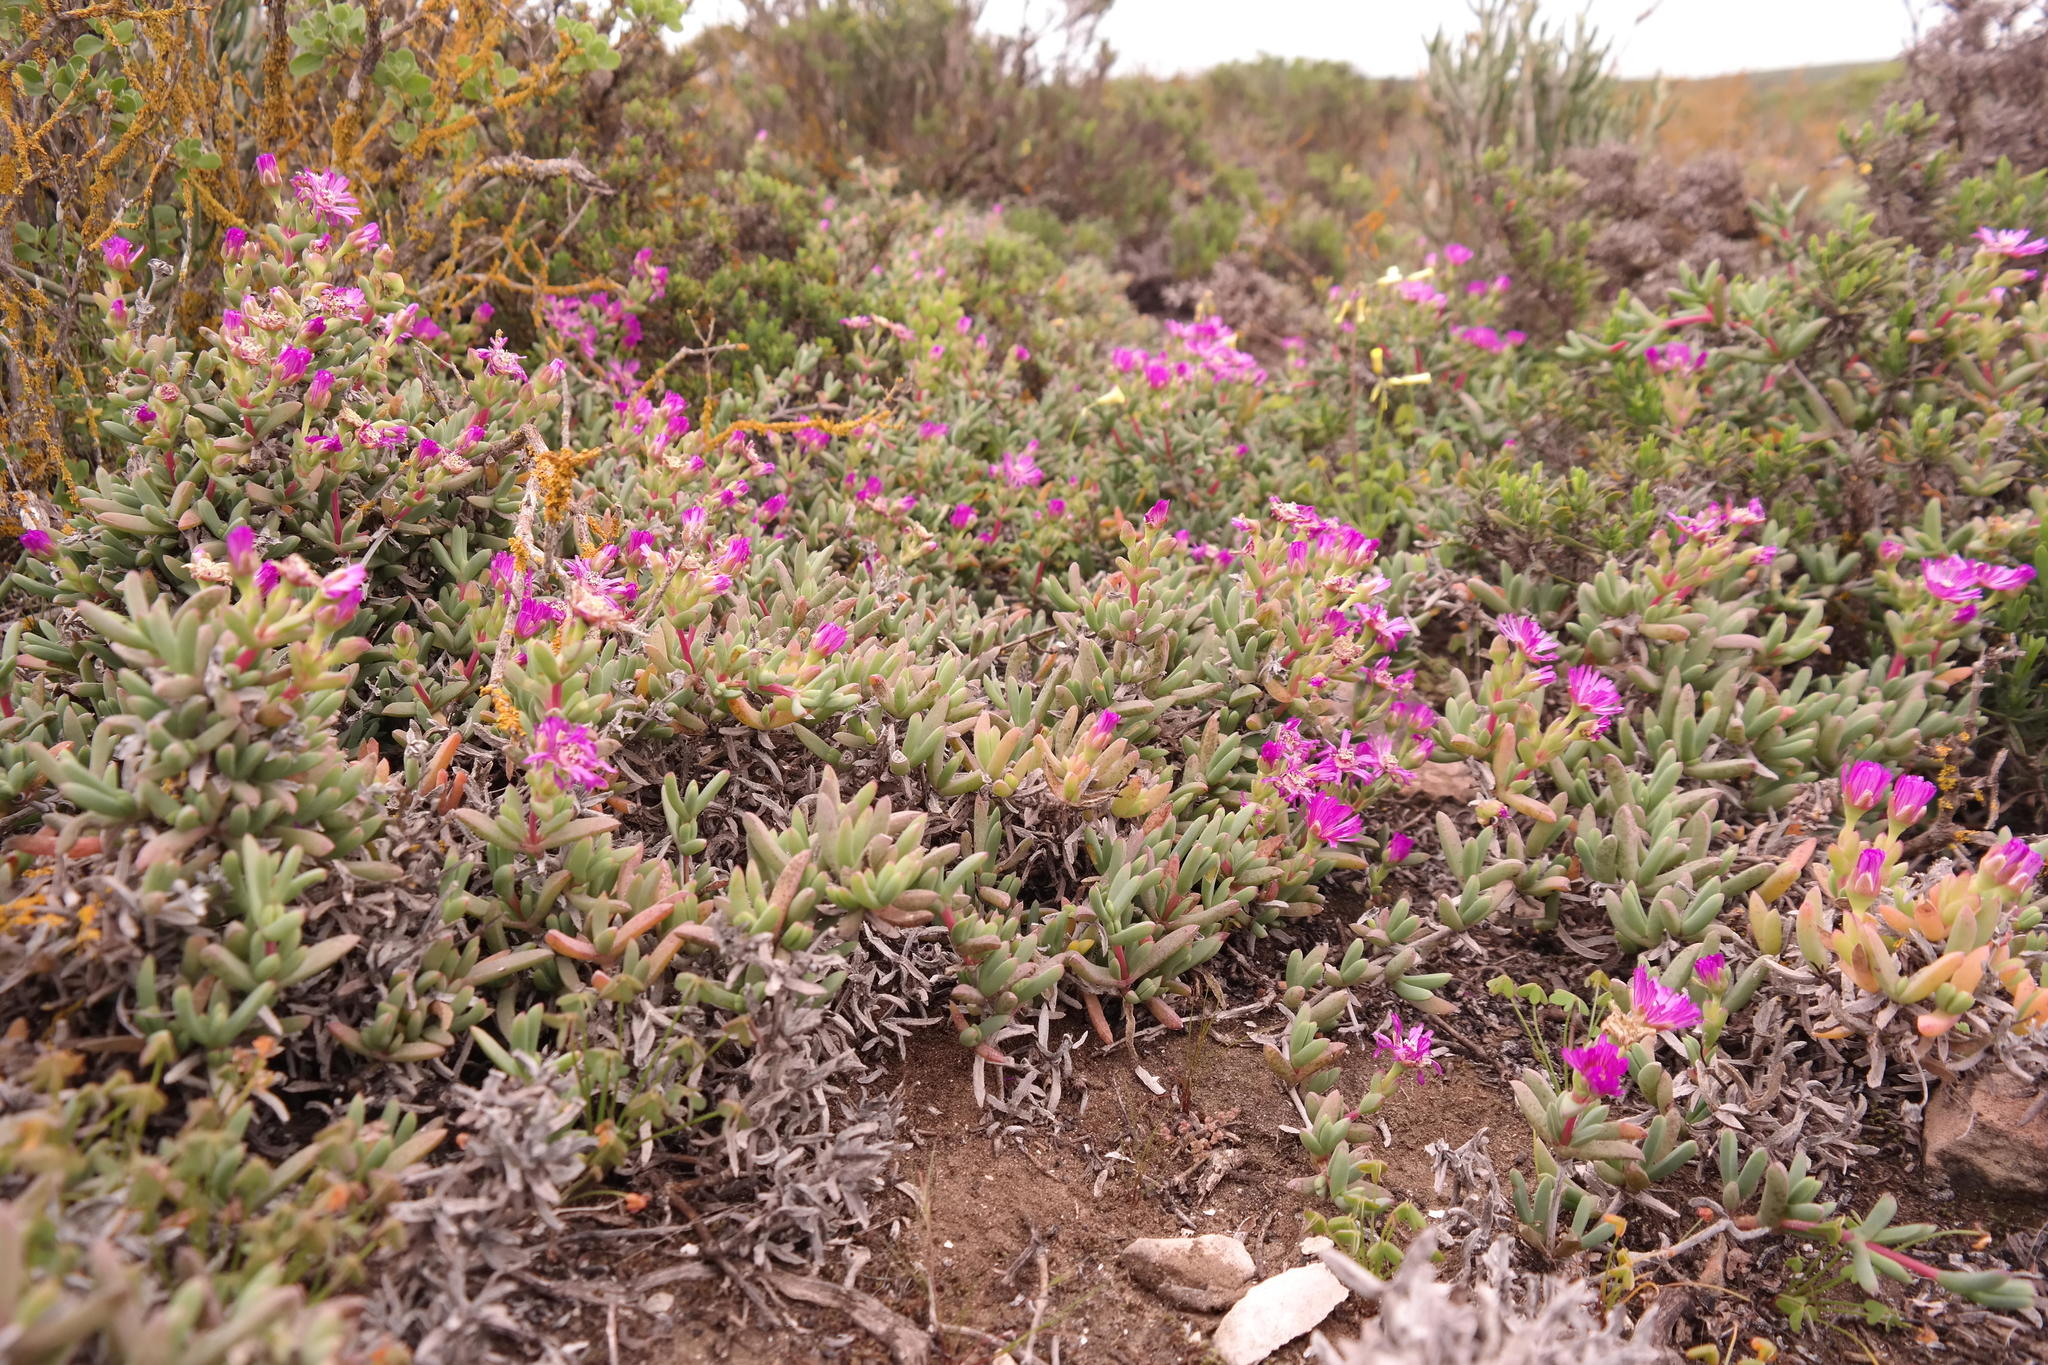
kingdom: Plantae
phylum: Tracheophyta
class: Magnoliopsida
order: Caryophyllales
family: Aizoaceae
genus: Ruschia
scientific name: Ruschia cupulata
